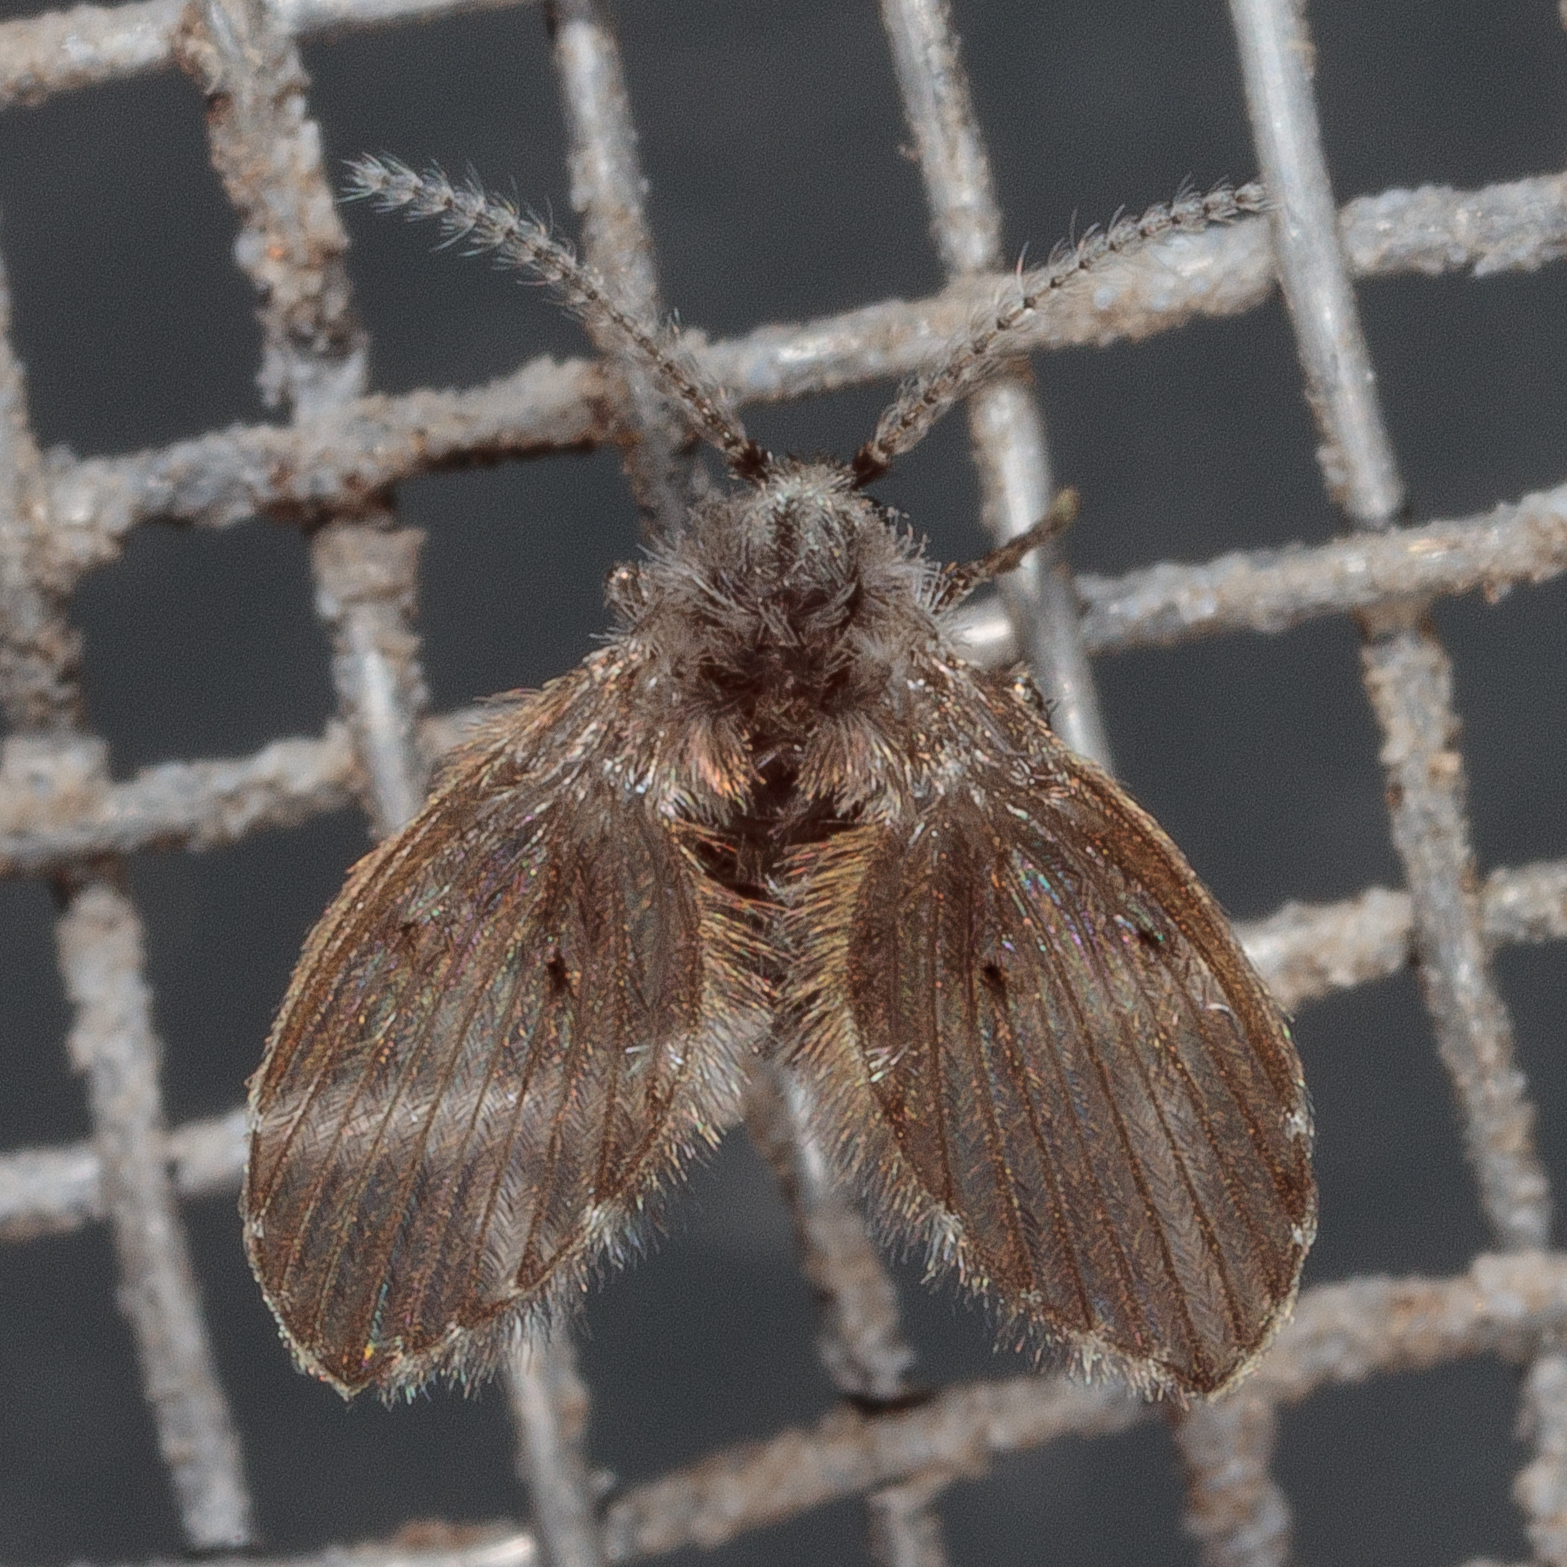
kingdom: Animalia
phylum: Arthropoda
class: Insecta
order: Diptera
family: Psychodidae
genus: Clogmia
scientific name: Clogmia albipunctatus
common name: White-spotted moth fly
